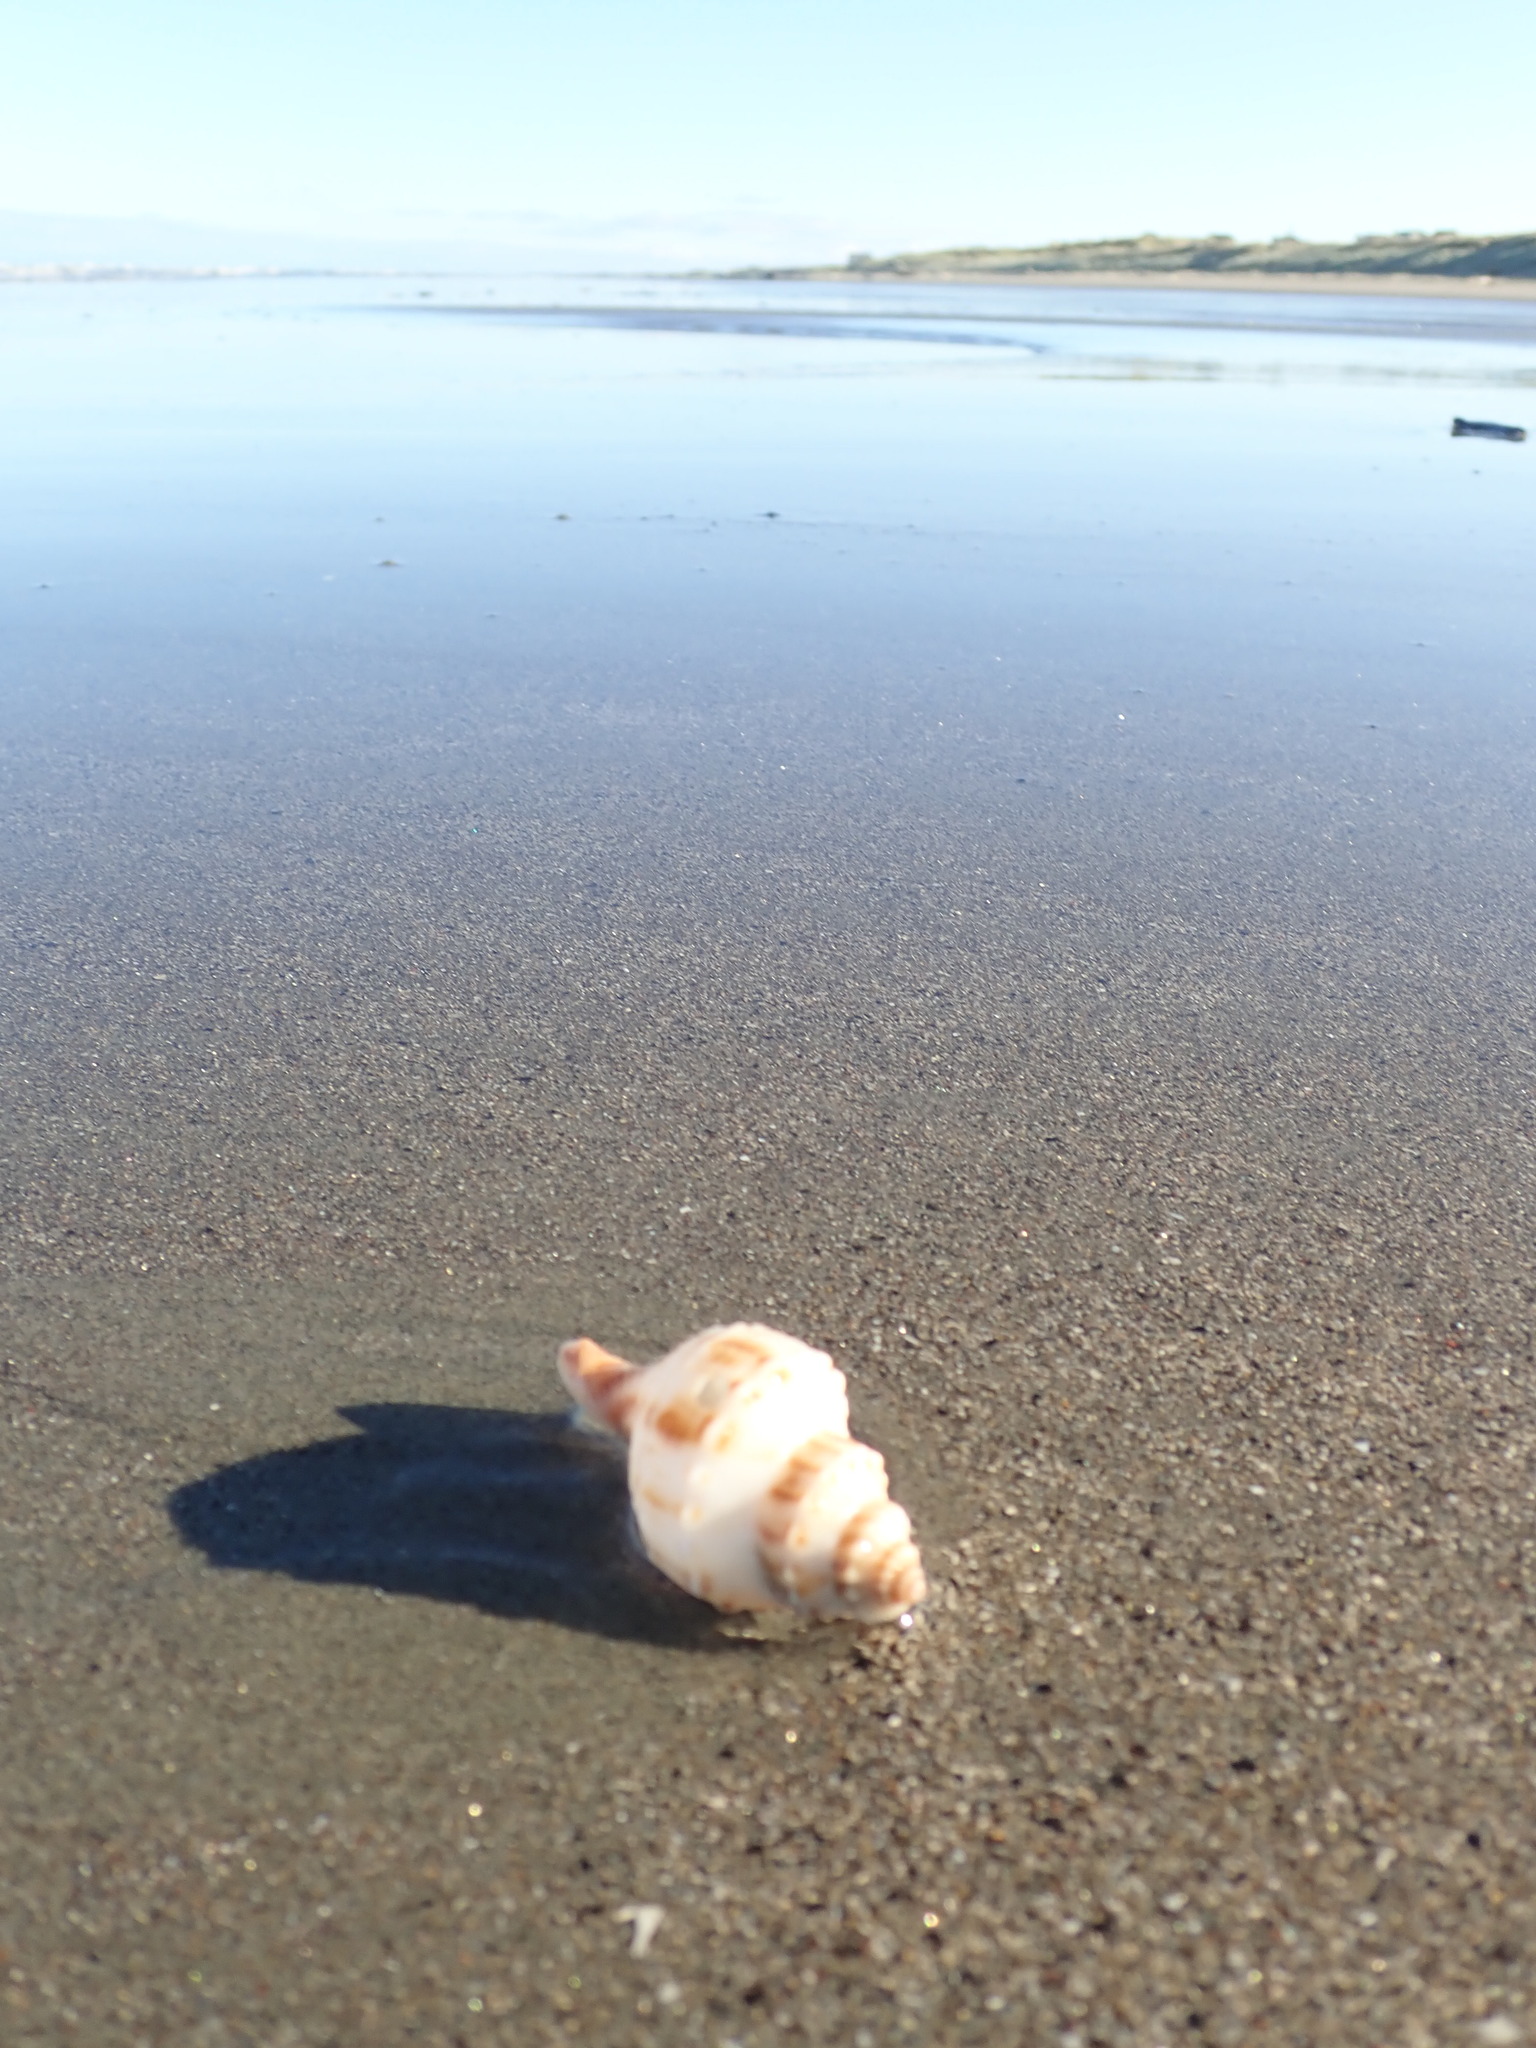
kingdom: Animalia
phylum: Mollusca
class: Gastropoda
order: Neogastropoda
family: Prosiphonidae
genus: Austrofusus
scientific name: Austrofusus glans
